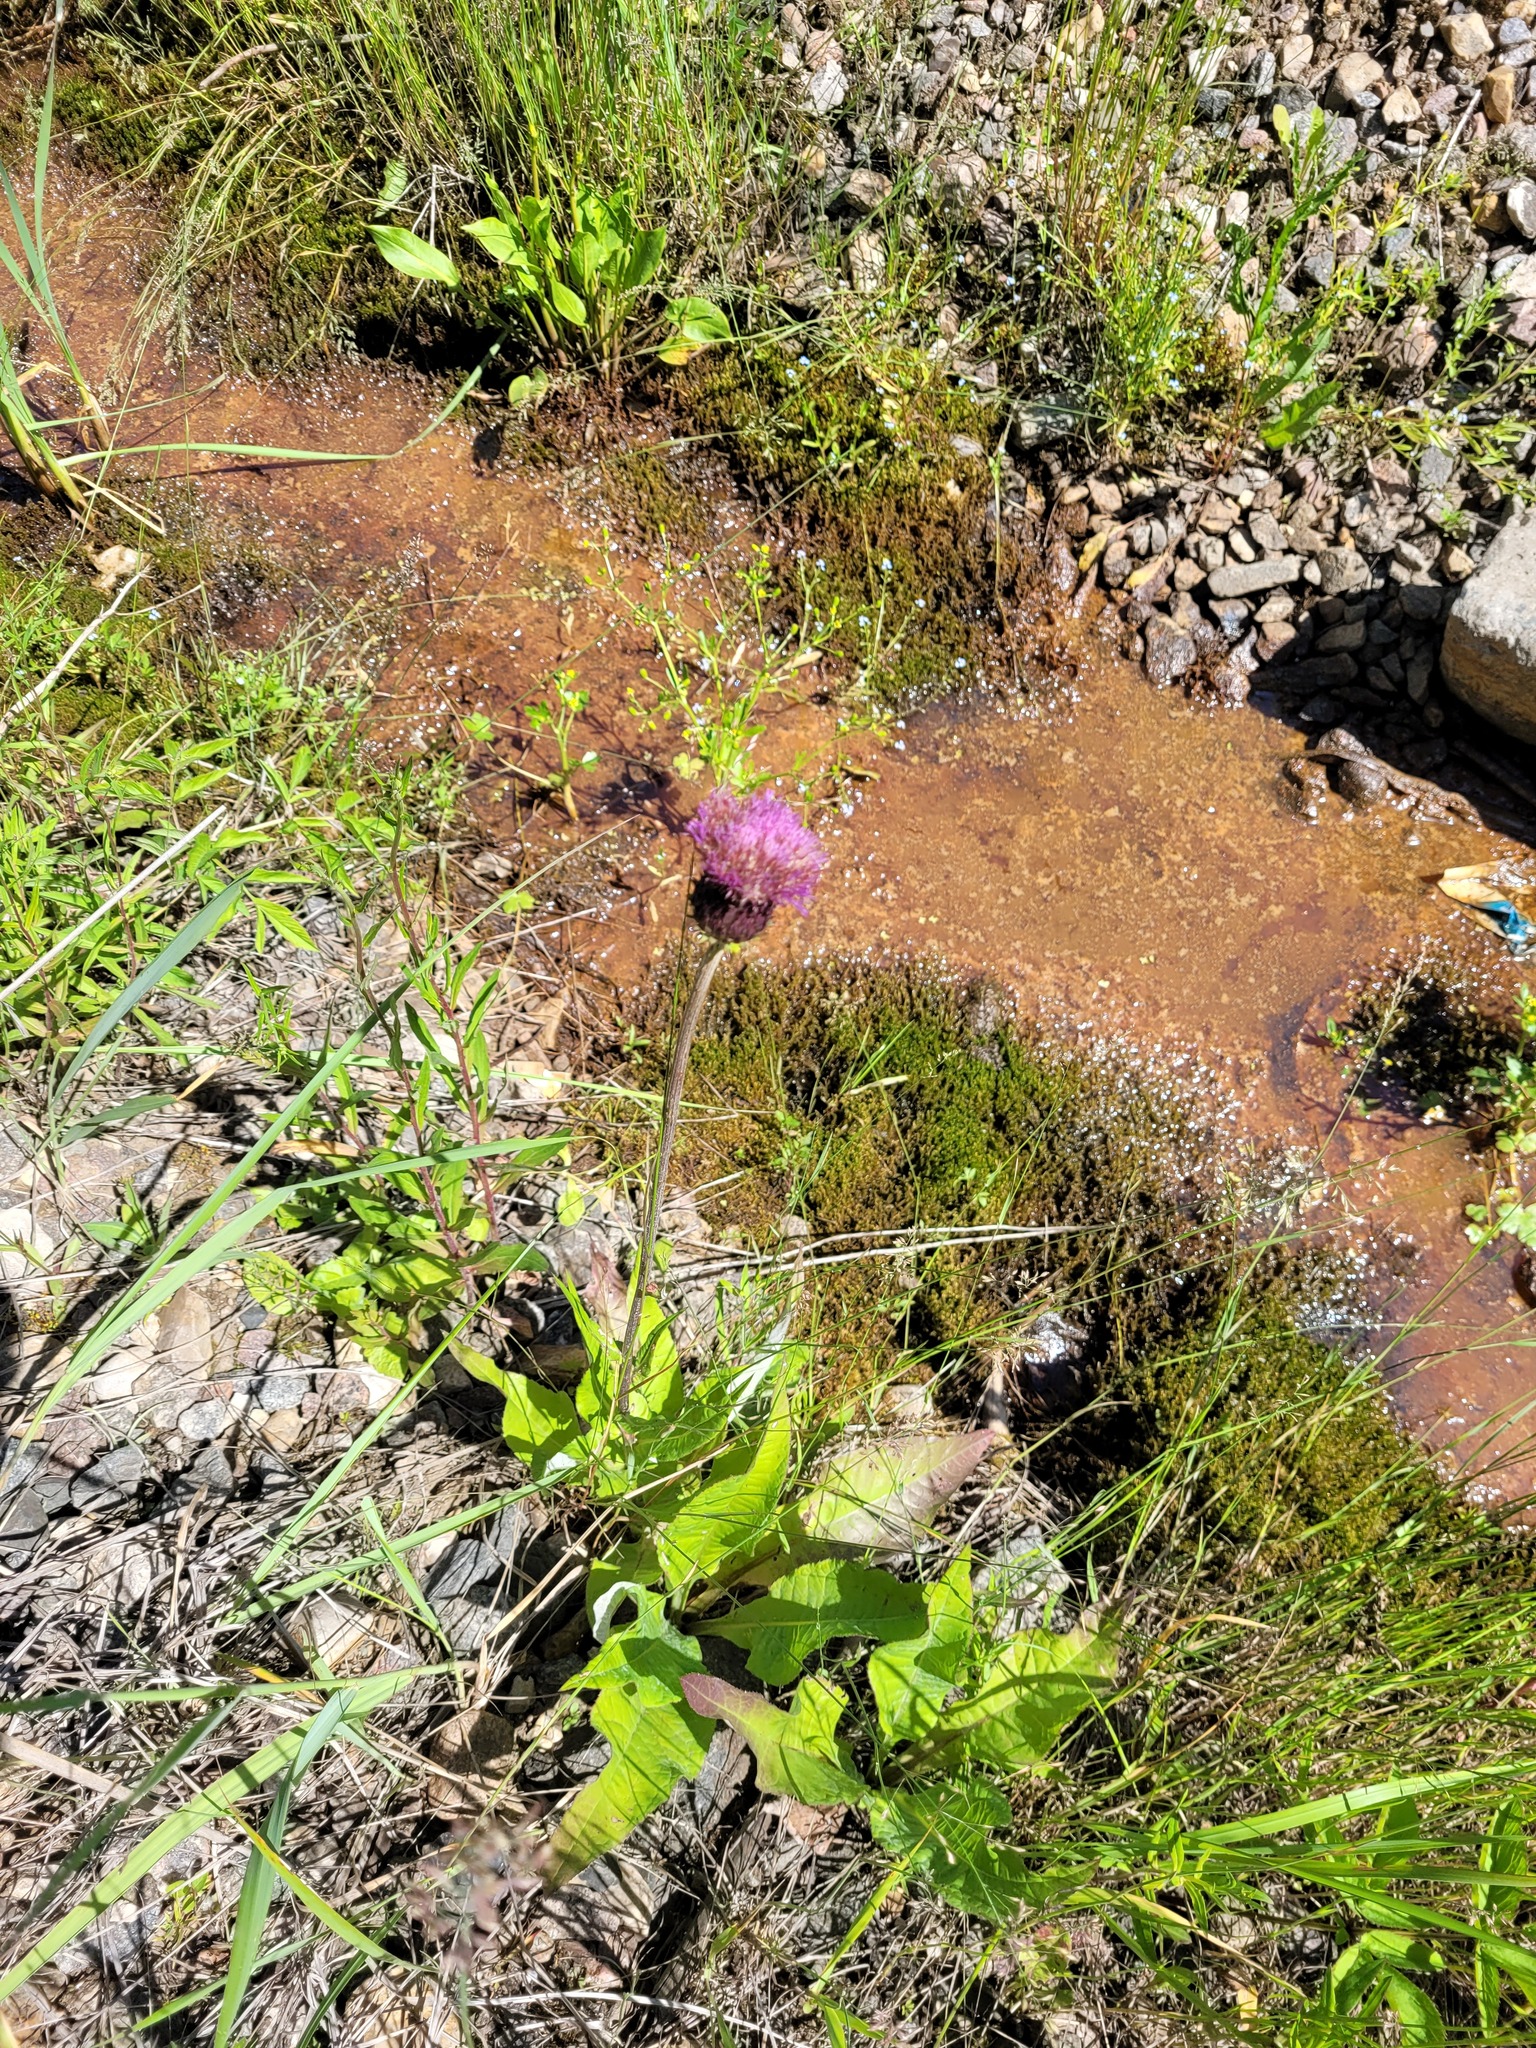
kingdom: Plantae
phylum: Tracheophyta
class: Magnoliopsida
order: Asterales
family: Asteraceae
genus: Cirsium
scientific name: Cirsium heterophyllum
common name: Melancholy thistle
